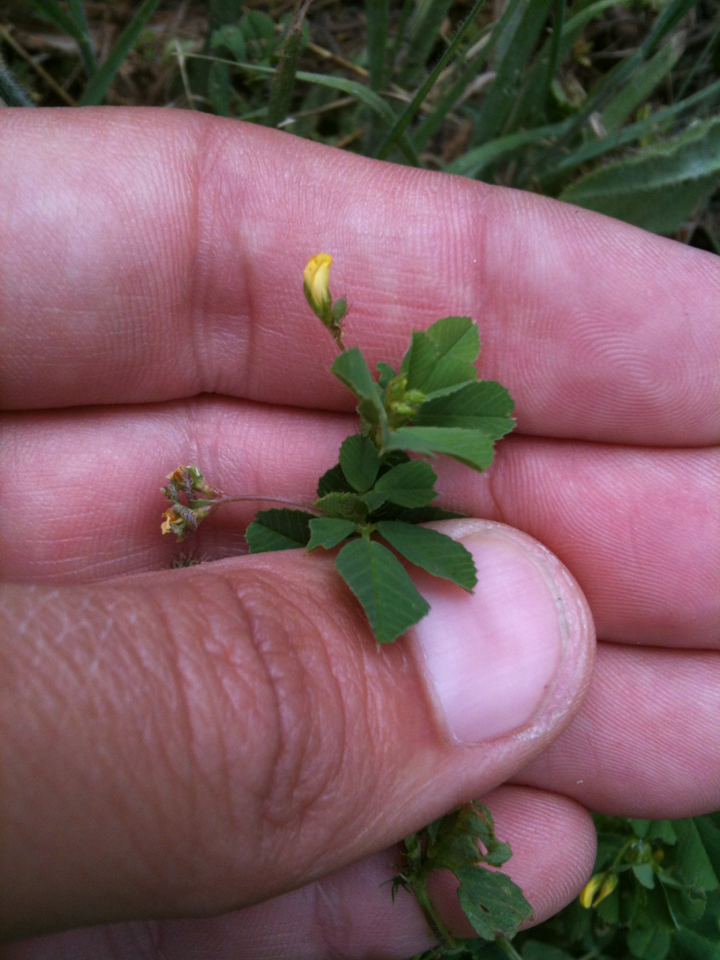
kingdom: Plantae
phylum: Tracheophyta
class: Magnoliopsida
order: Fabales
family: Fabaceae
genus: Medicago
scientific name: Medicago polymorpha
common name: Burclover
